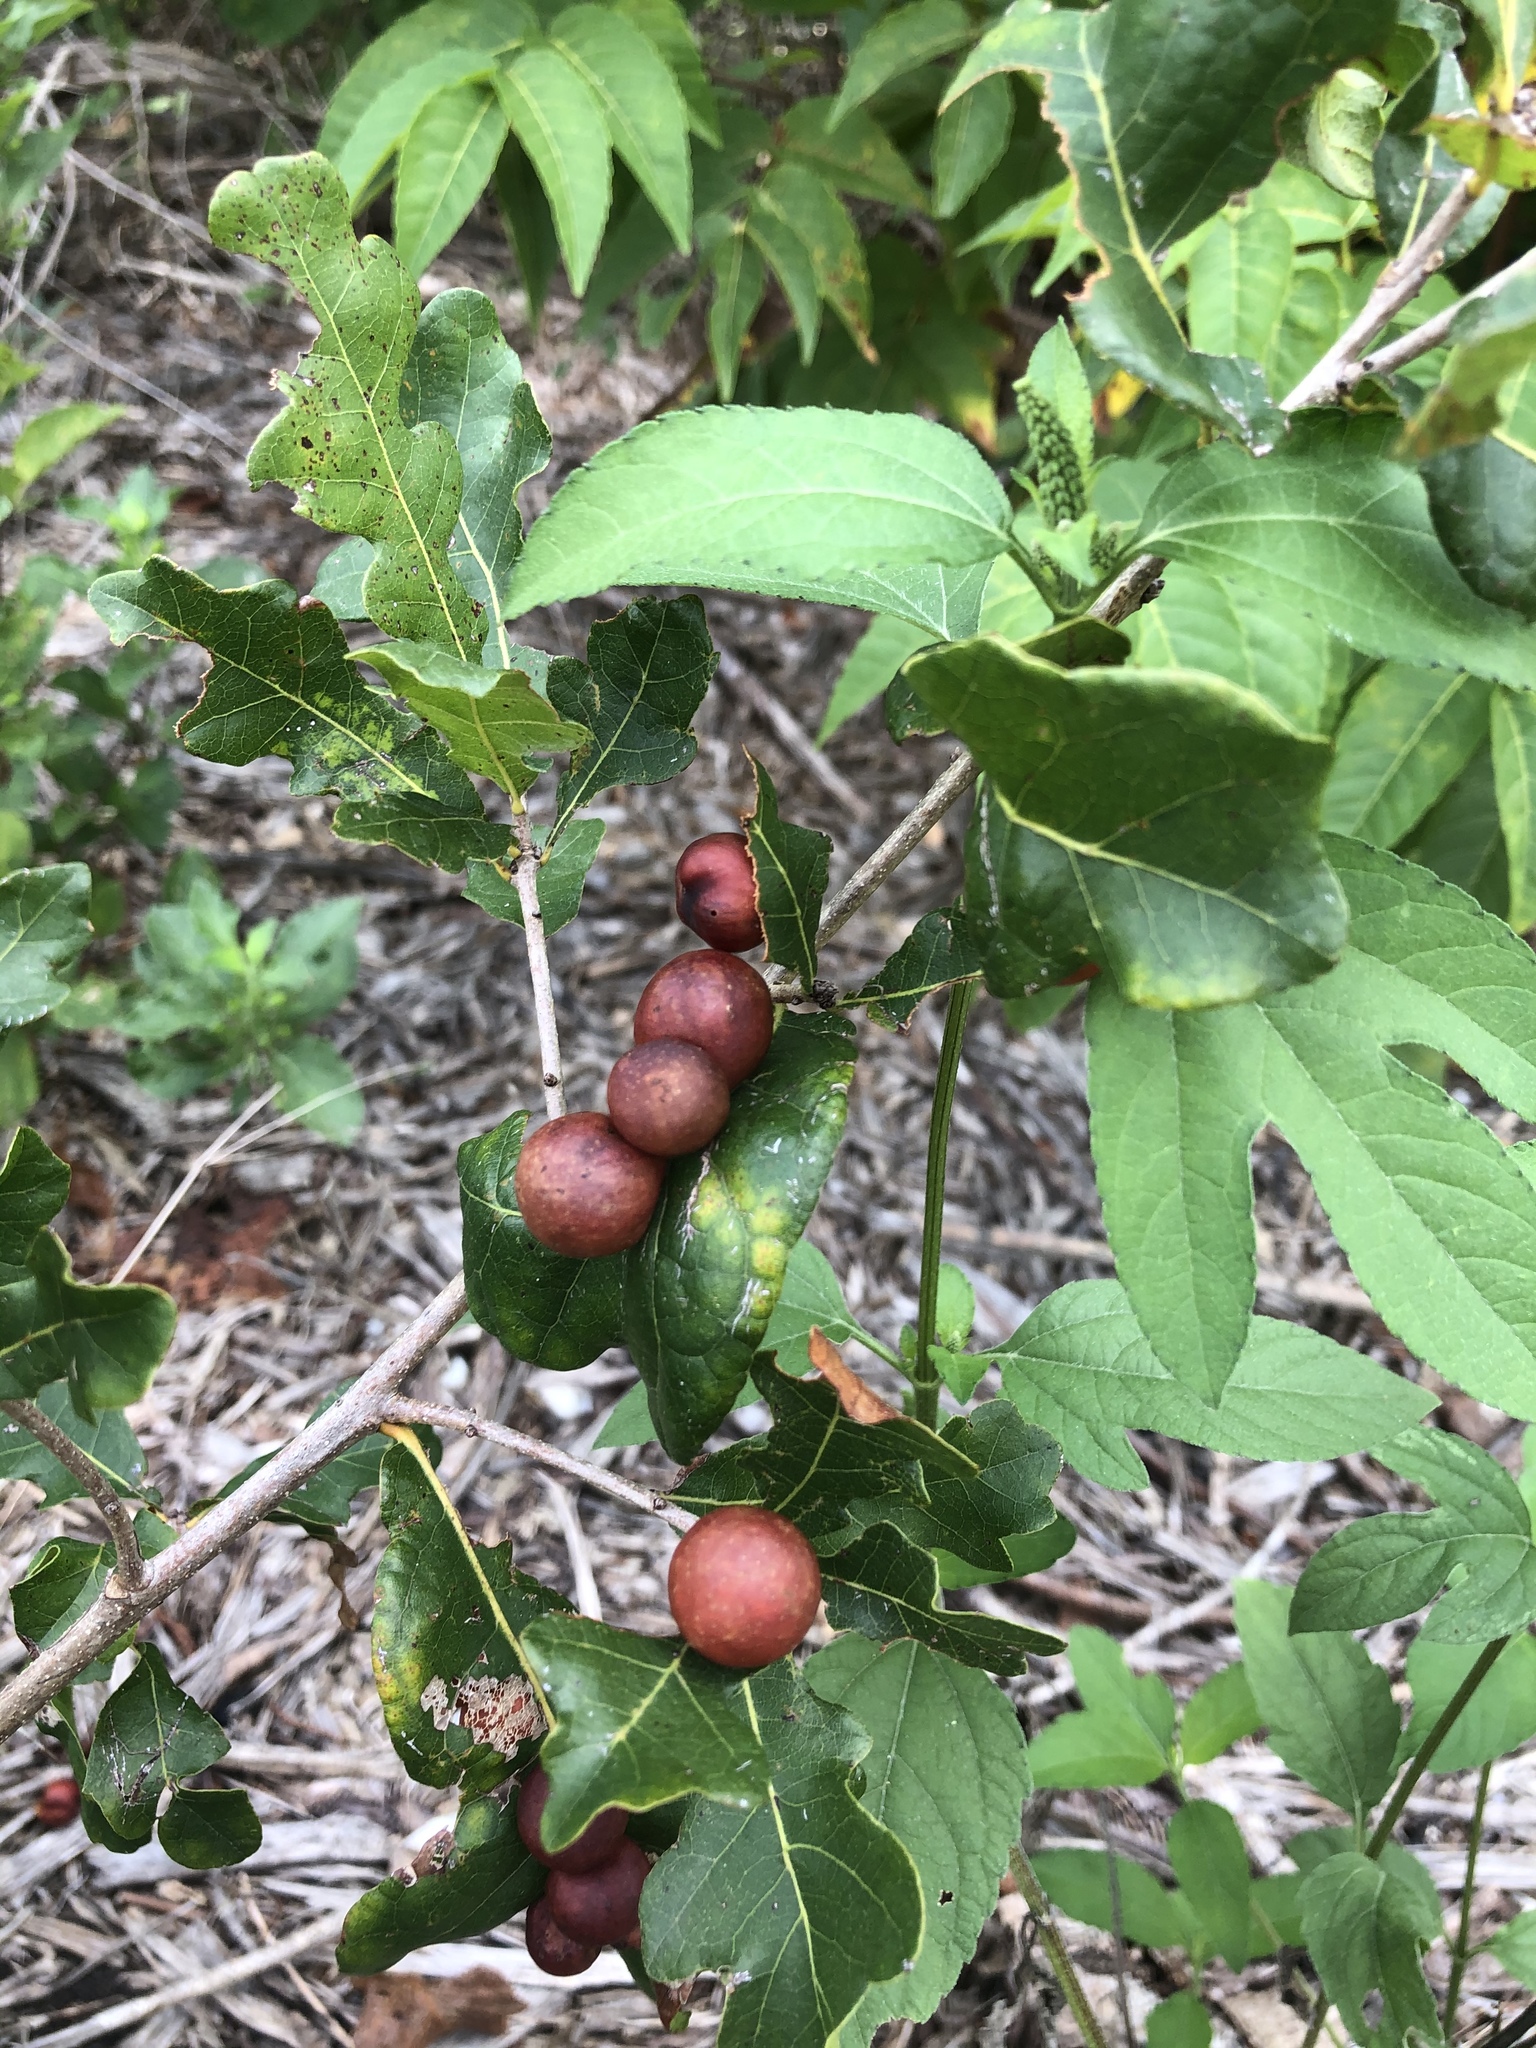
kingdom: Animalia
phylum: Arthropoda
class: Insecta
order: Hymenoptera
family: Cynipidae
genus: Trigonaspis
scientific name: Trigonaspis
